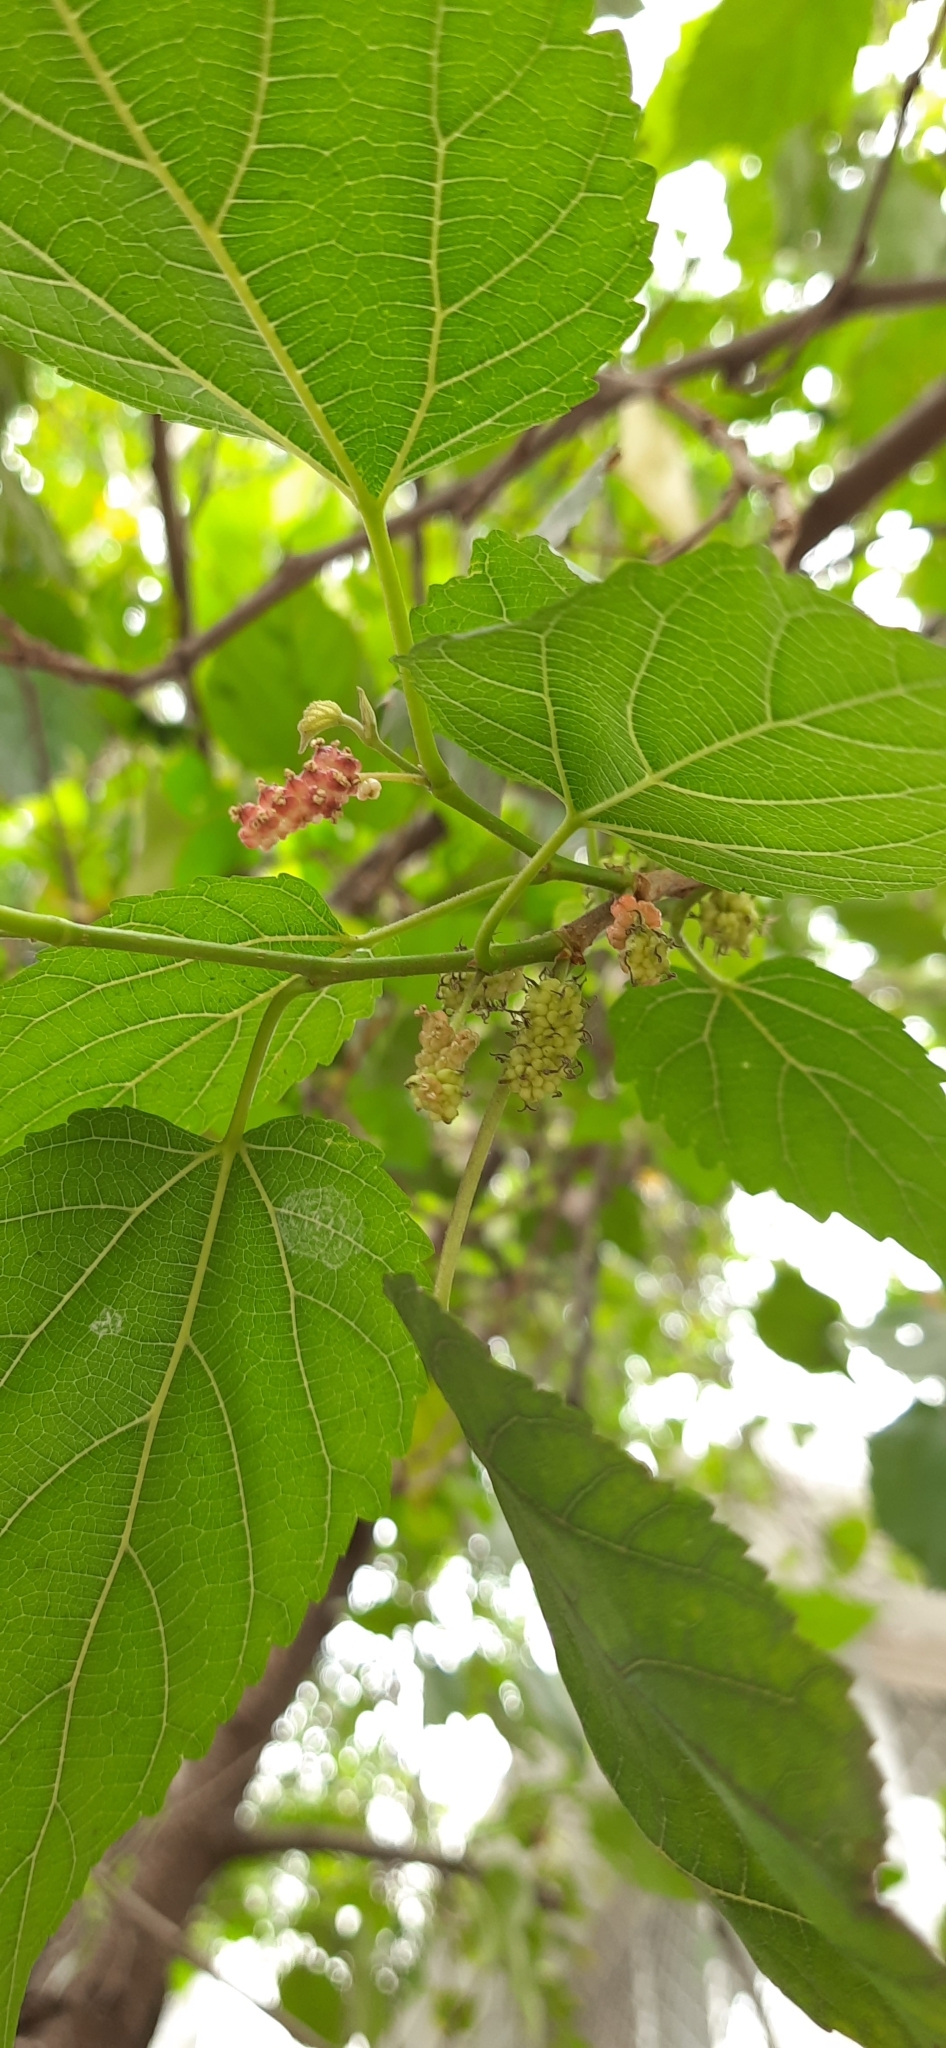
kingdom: Plantae
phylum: Tracheophyta
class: Magnoliopsida
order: Rosales
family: Moraceae
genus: Morus
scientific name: Morus alba
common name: White mulberry
